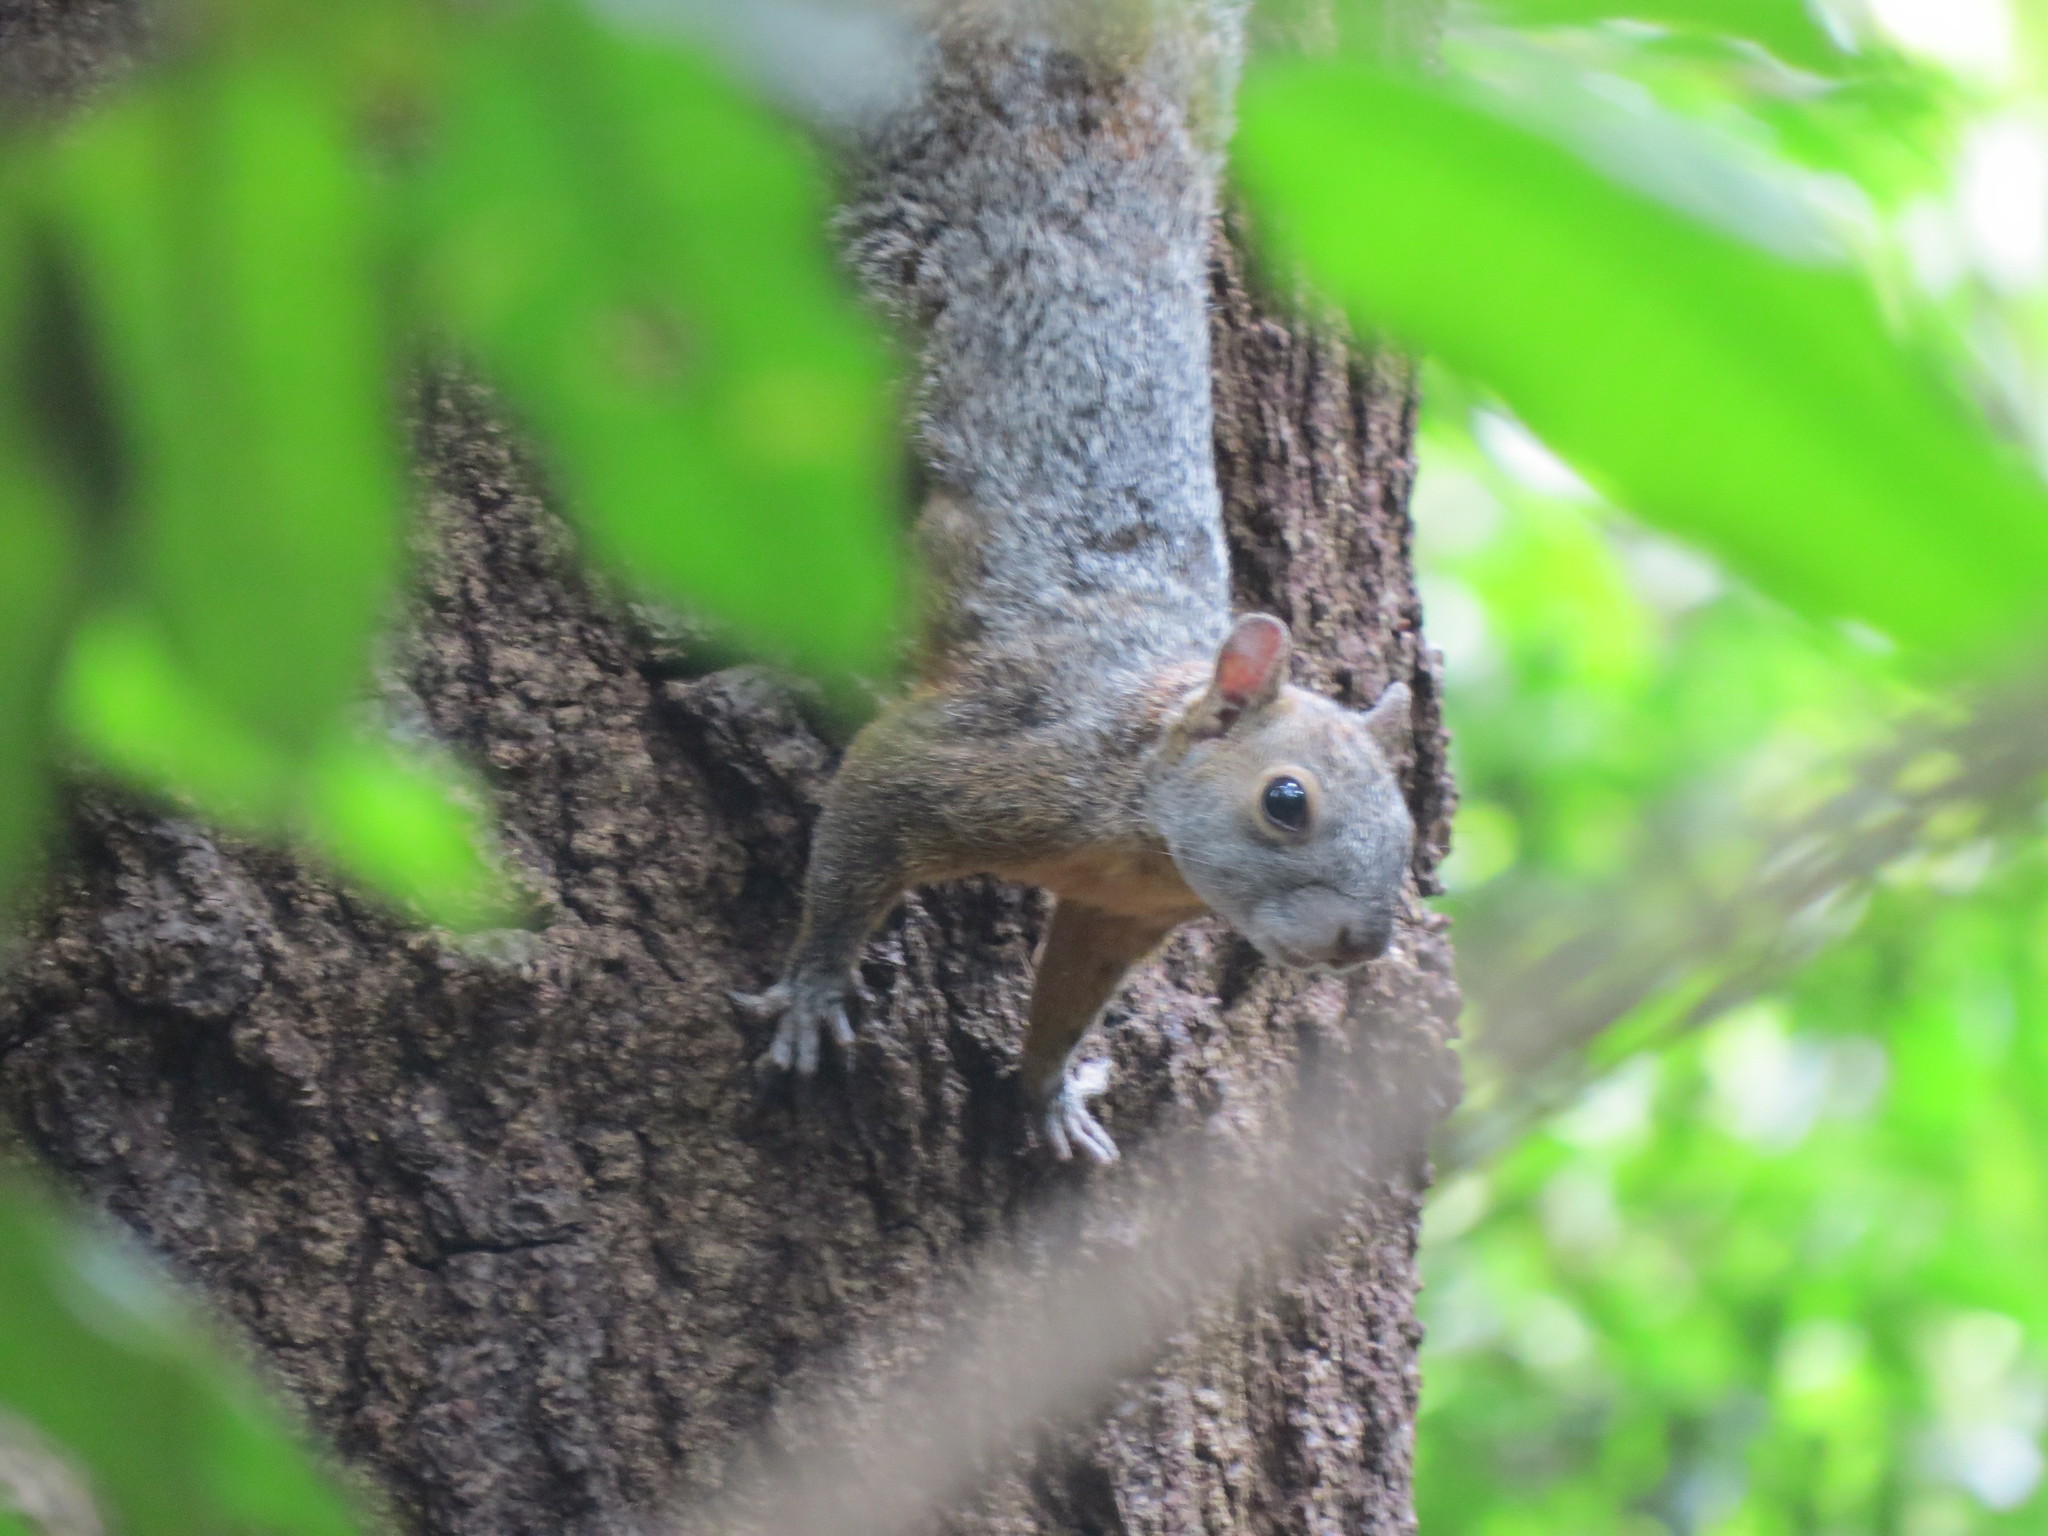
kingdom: Animalia
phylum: Chordata
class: Mammalia
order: Rodentia
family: Sciuridae
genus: Sciurus
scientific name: Sciurus aureogaster
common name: Red-bellied squirrel
